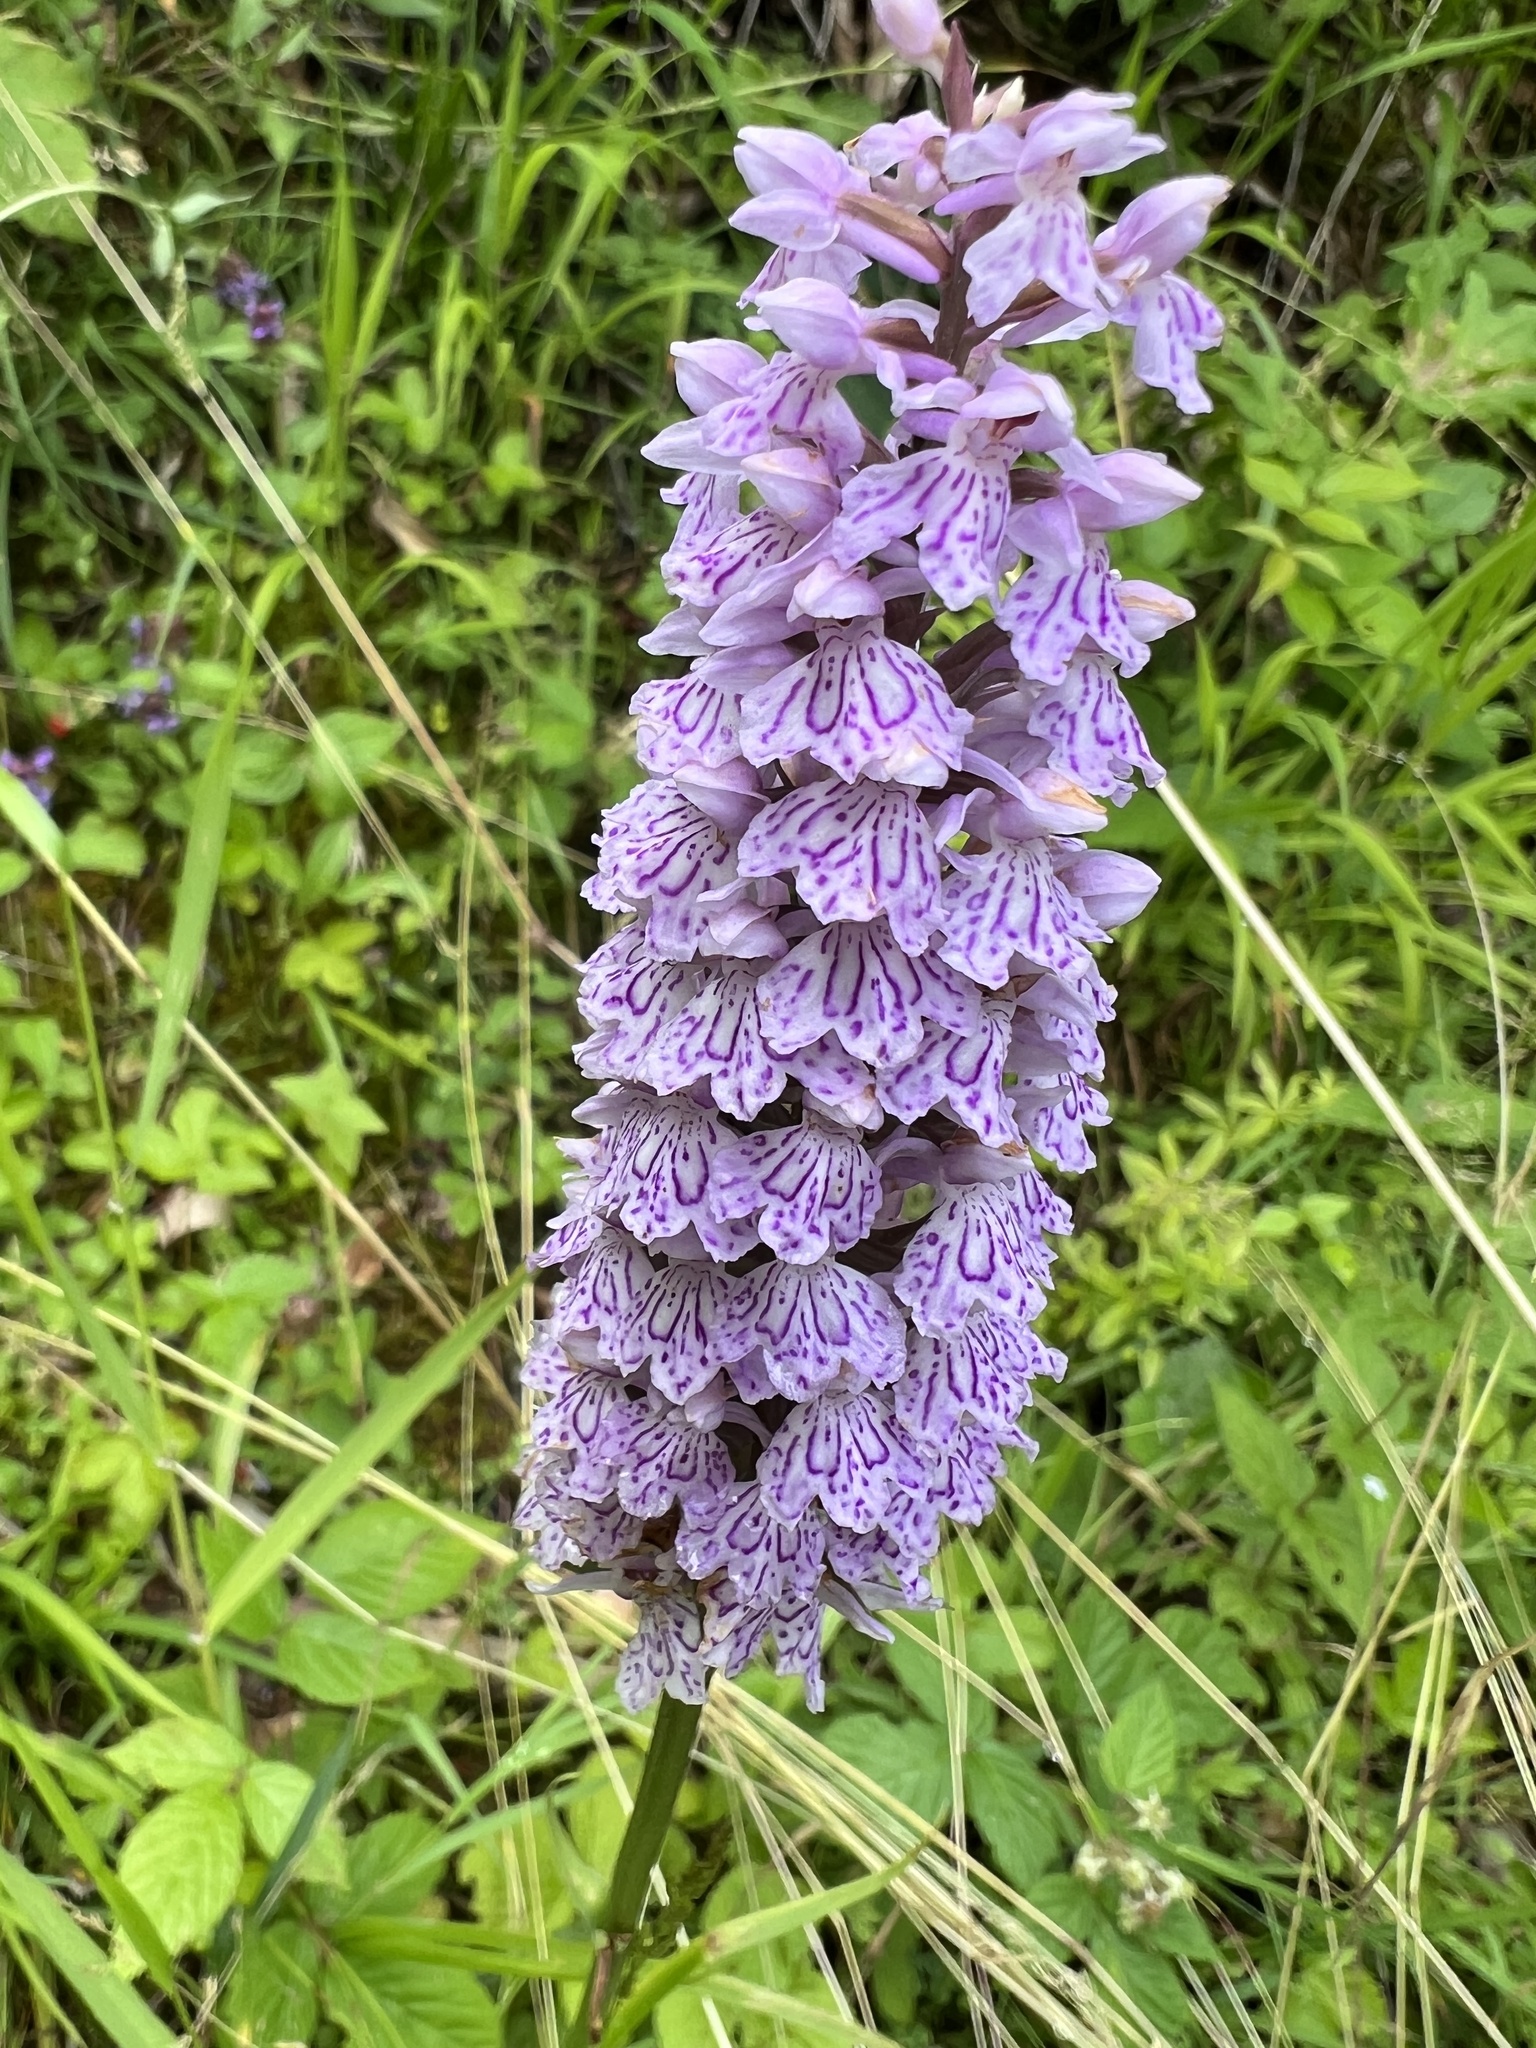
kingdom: Plantae
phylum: Tracheophyta
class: Liliopsida
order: Asparagales
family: Orchidaceae
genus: Dactylorhiza
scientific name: Dactylorhiza maculata
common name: Heath spotted-orchid
